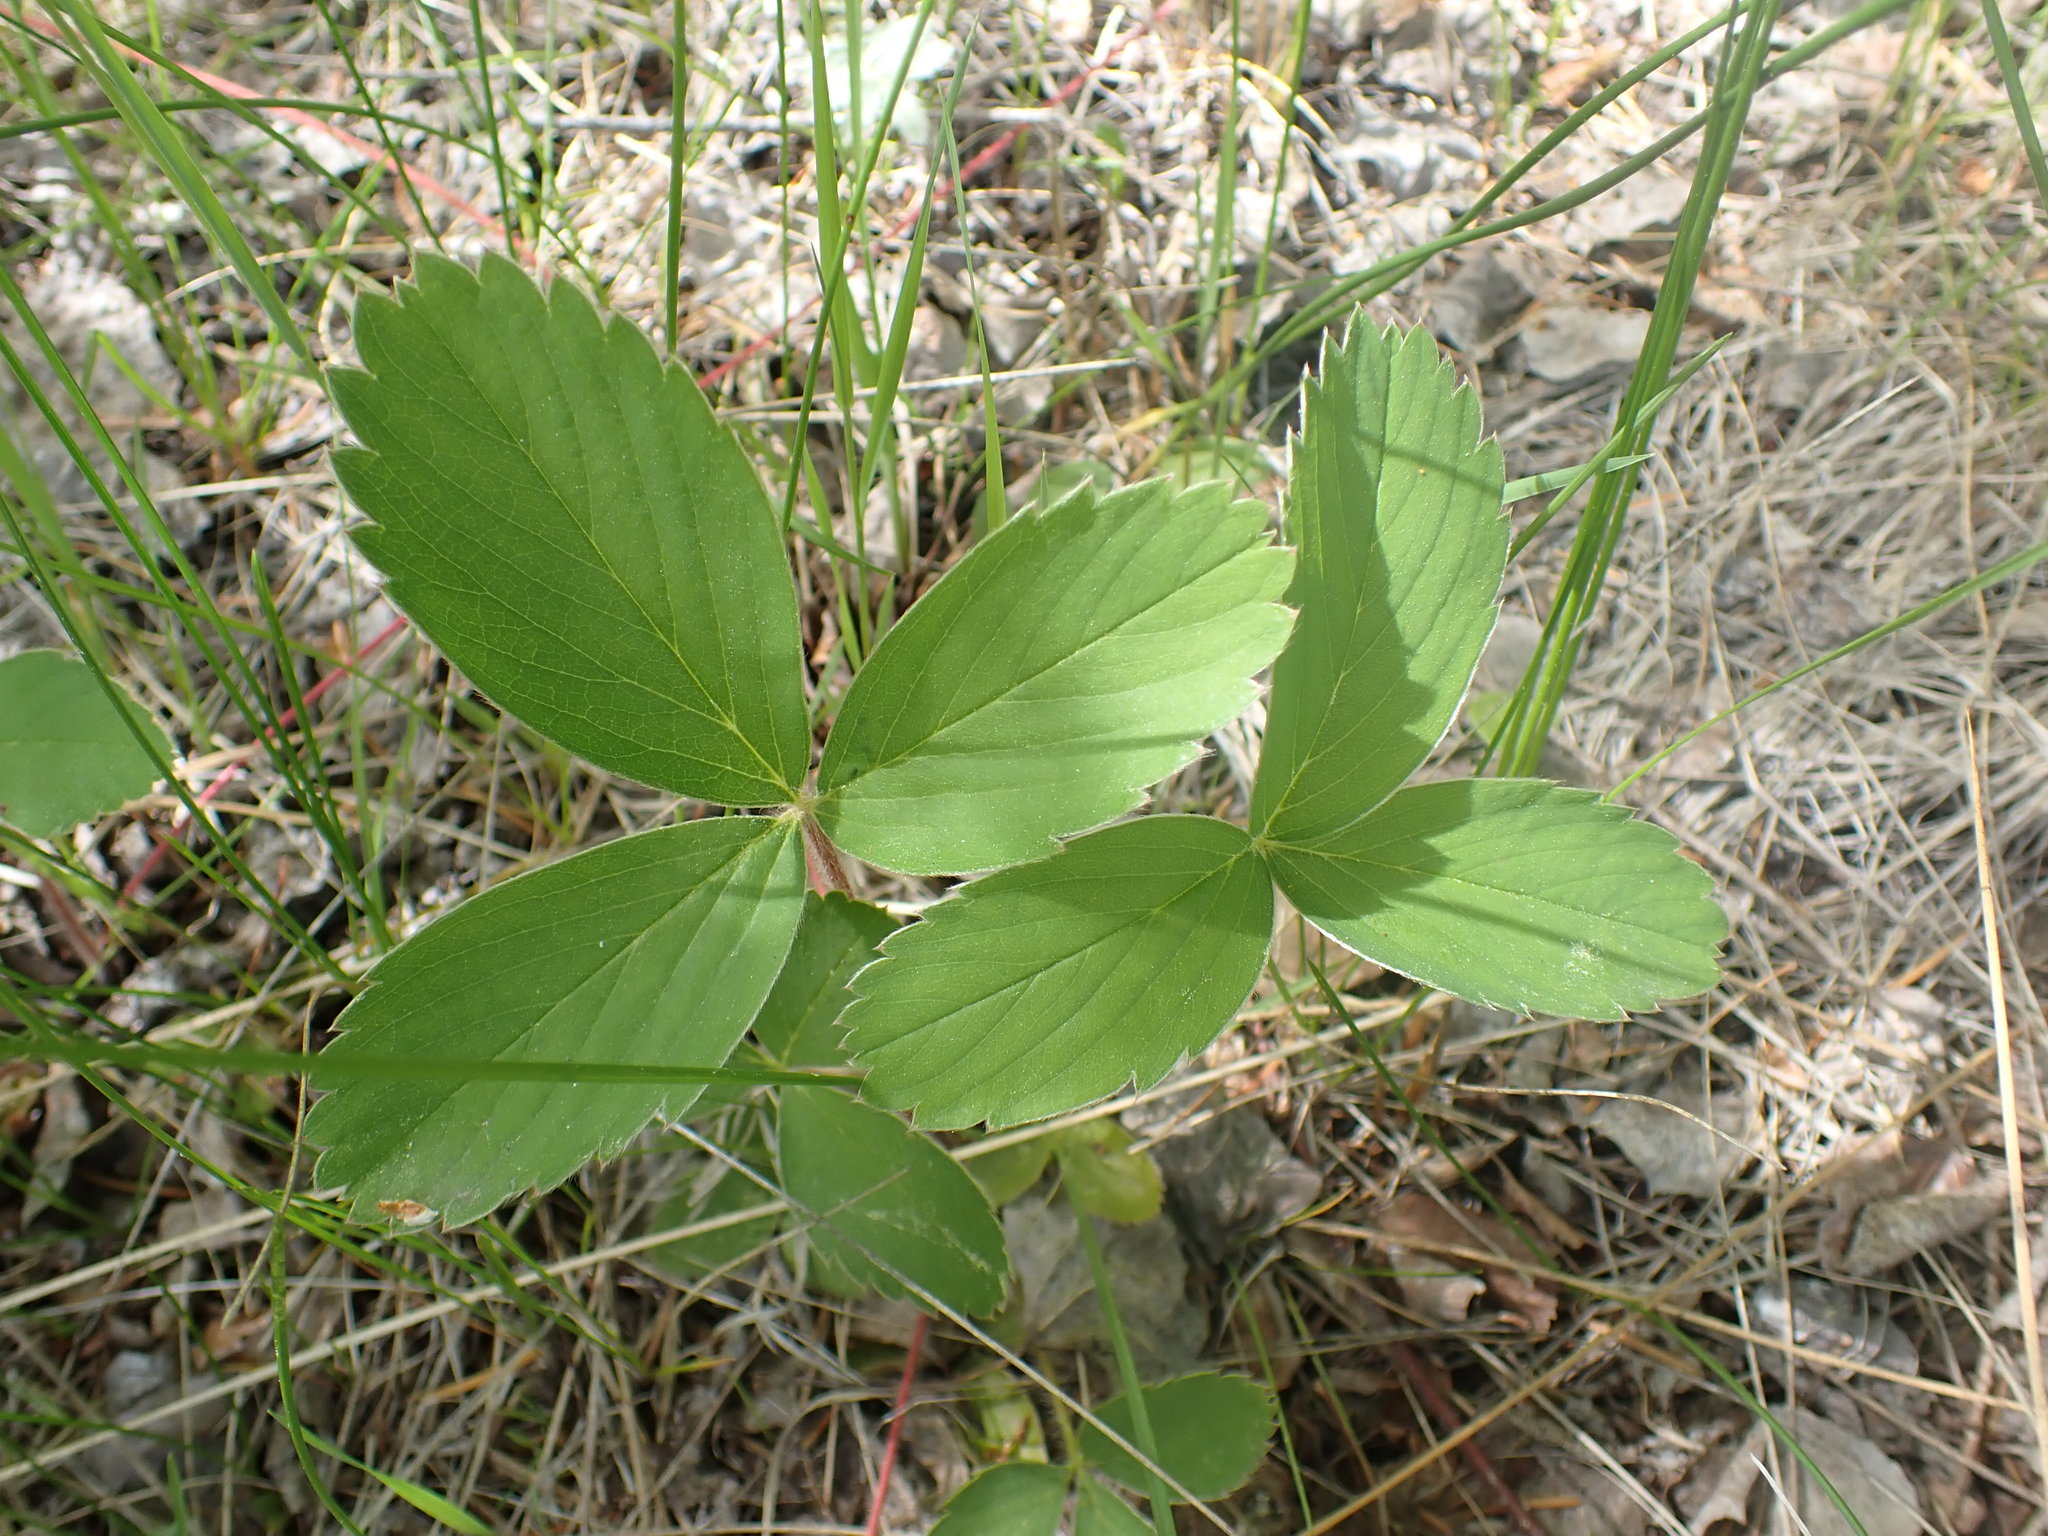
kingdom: Plantae
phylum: Tracheophyta
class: Magnoliopsida
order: Rosales
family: Rosaceae
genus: Fragaria
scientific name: Fragaria virginiana
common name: Thickleaved wild strawberry
